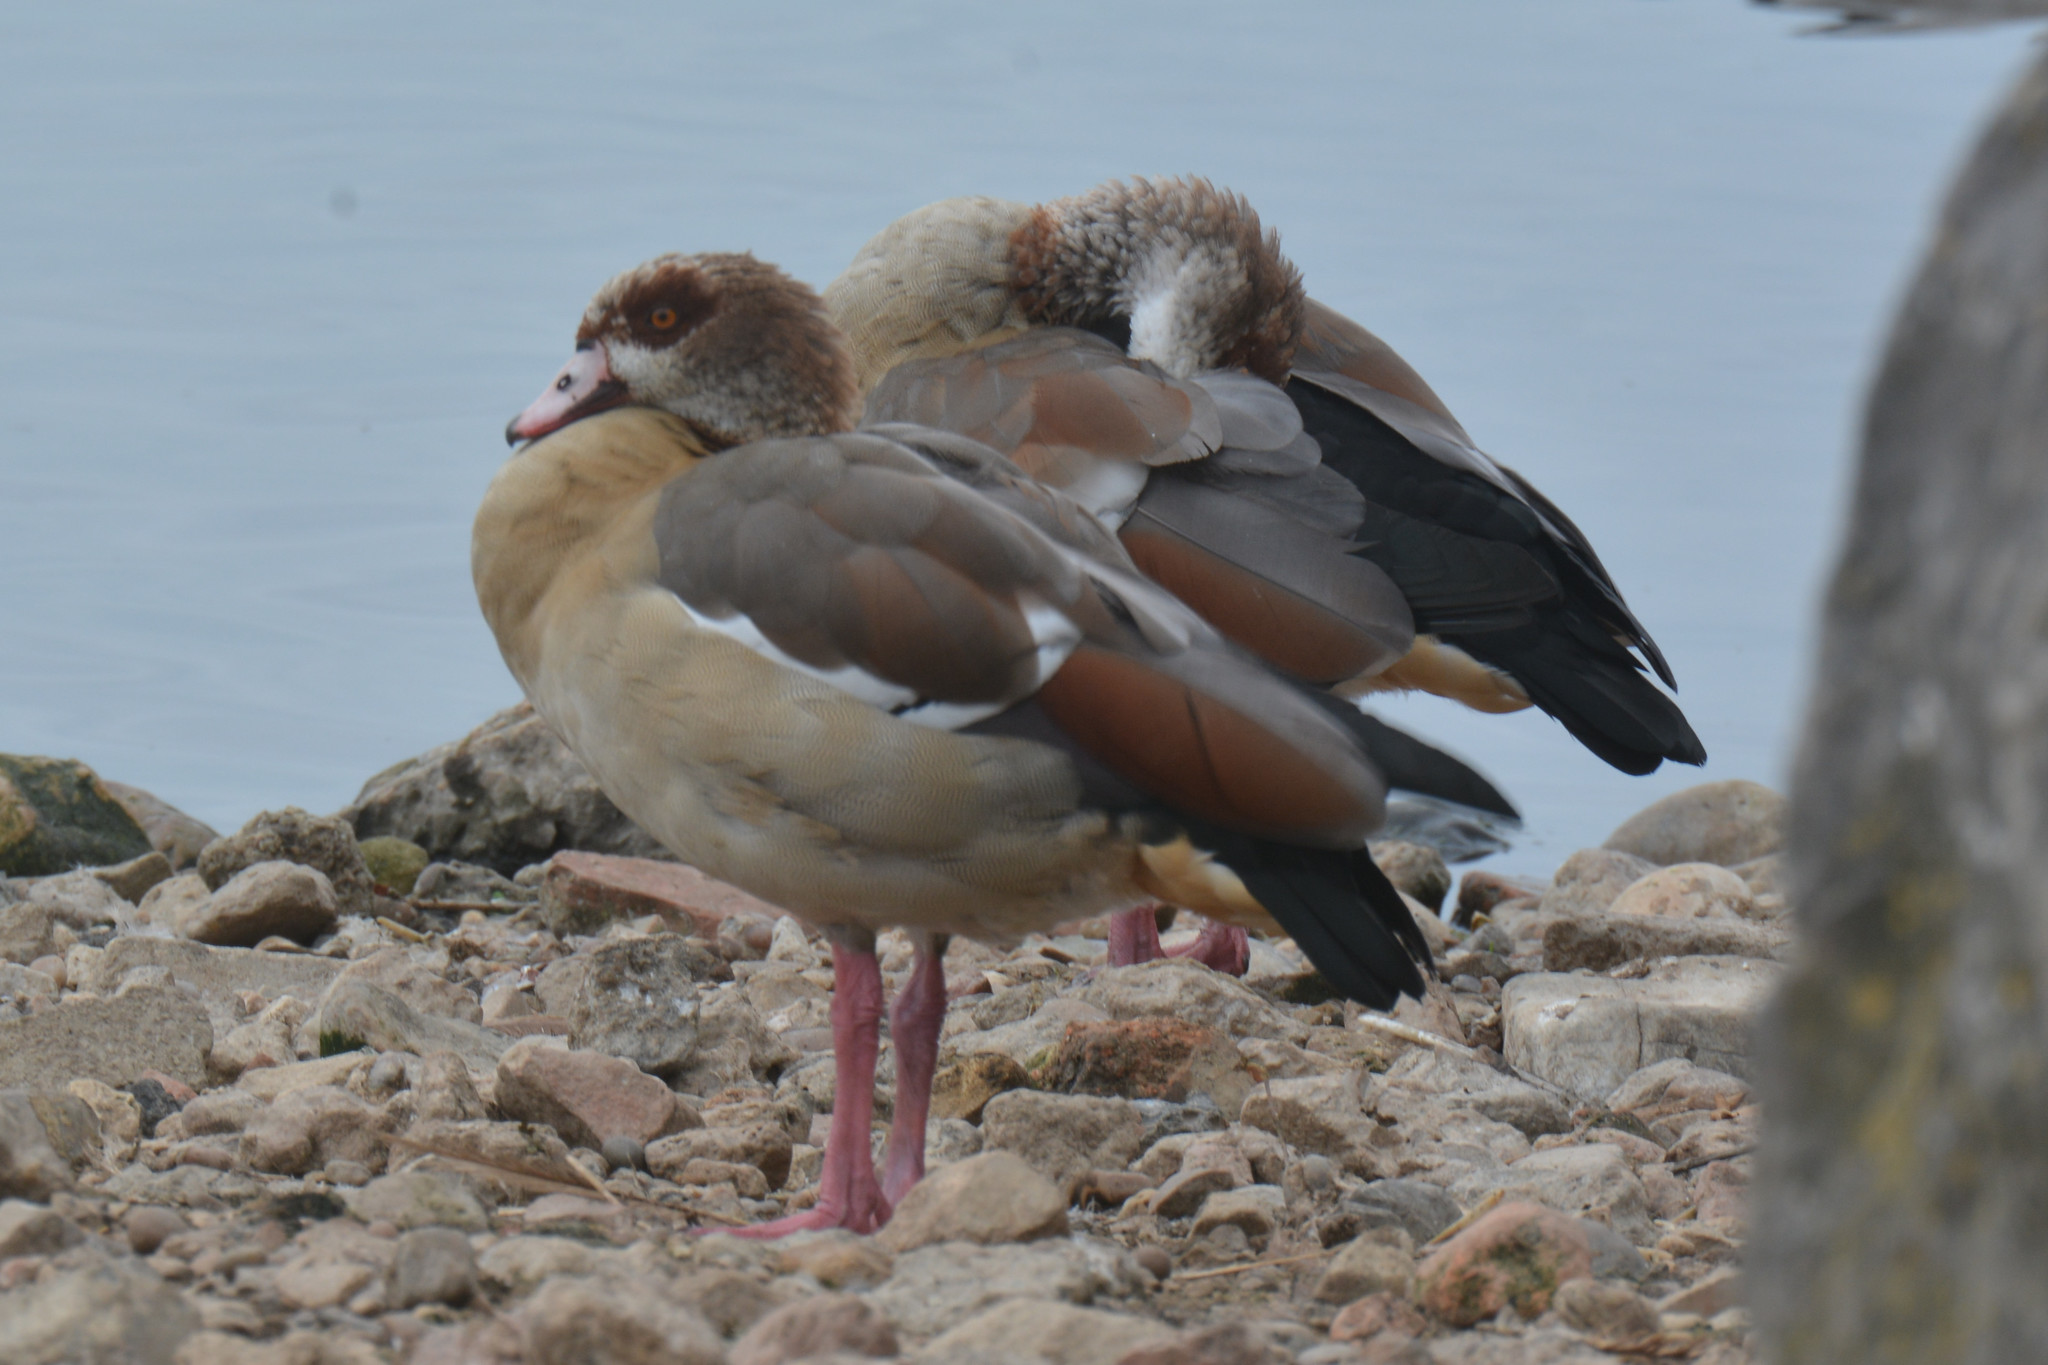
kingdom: Animalia
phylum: Chordata
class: Aves
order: Anseriformes
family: Anatidae
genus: Alopochen
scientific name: Alopochen aegyptiaca
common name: Egyptian goose
